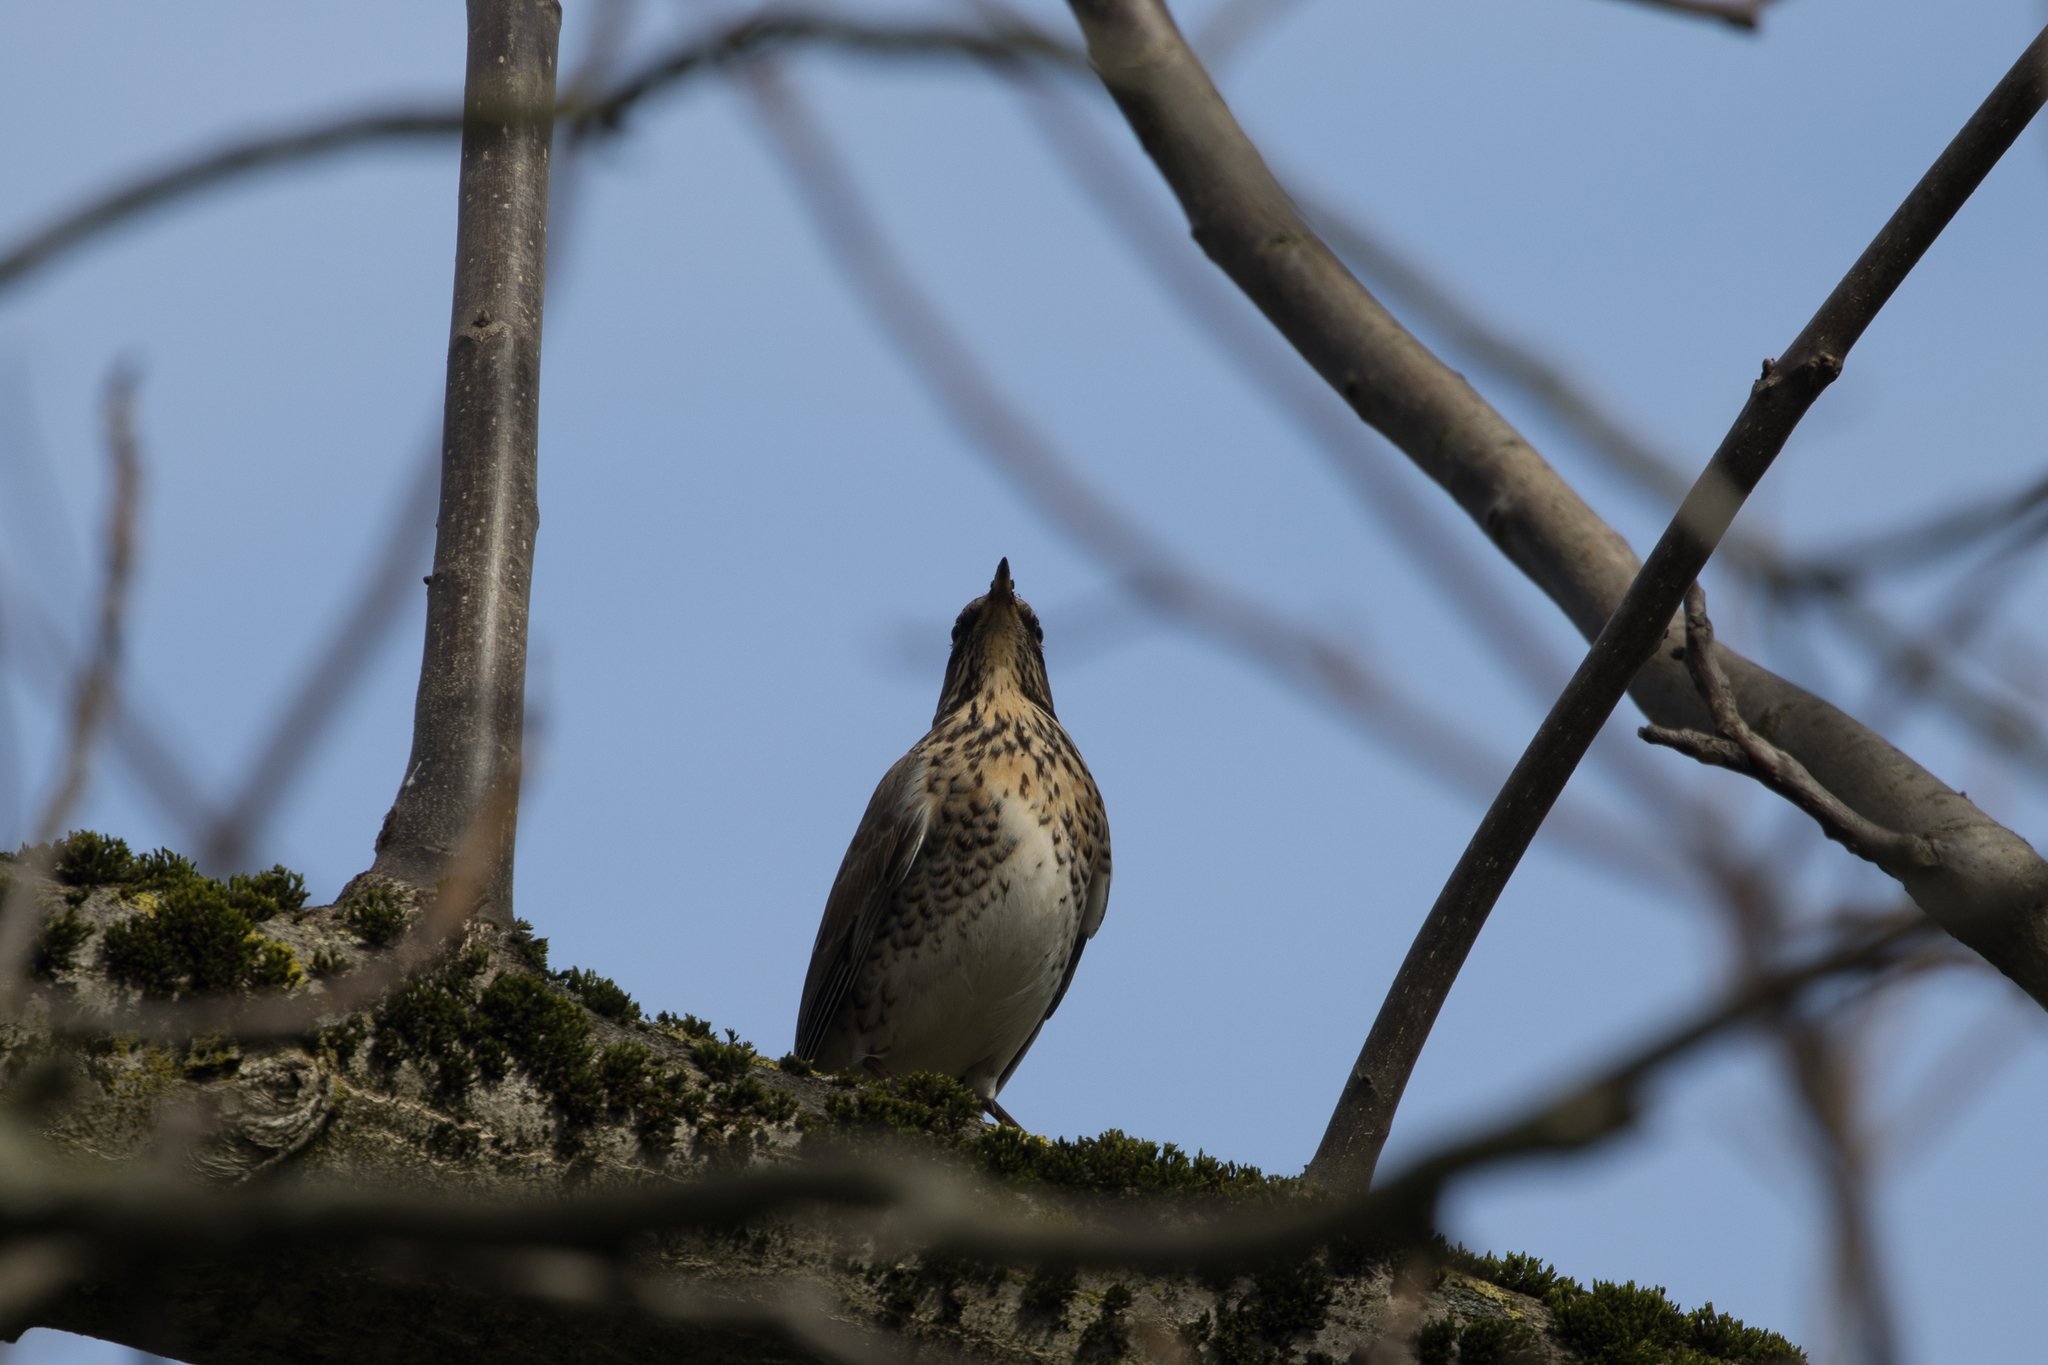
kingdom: Animalia
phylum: Chordata
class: Aves
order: Passeriformes
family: Turdidae
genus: Turdus
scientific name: Turdus pilaris
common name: Fieldfare
